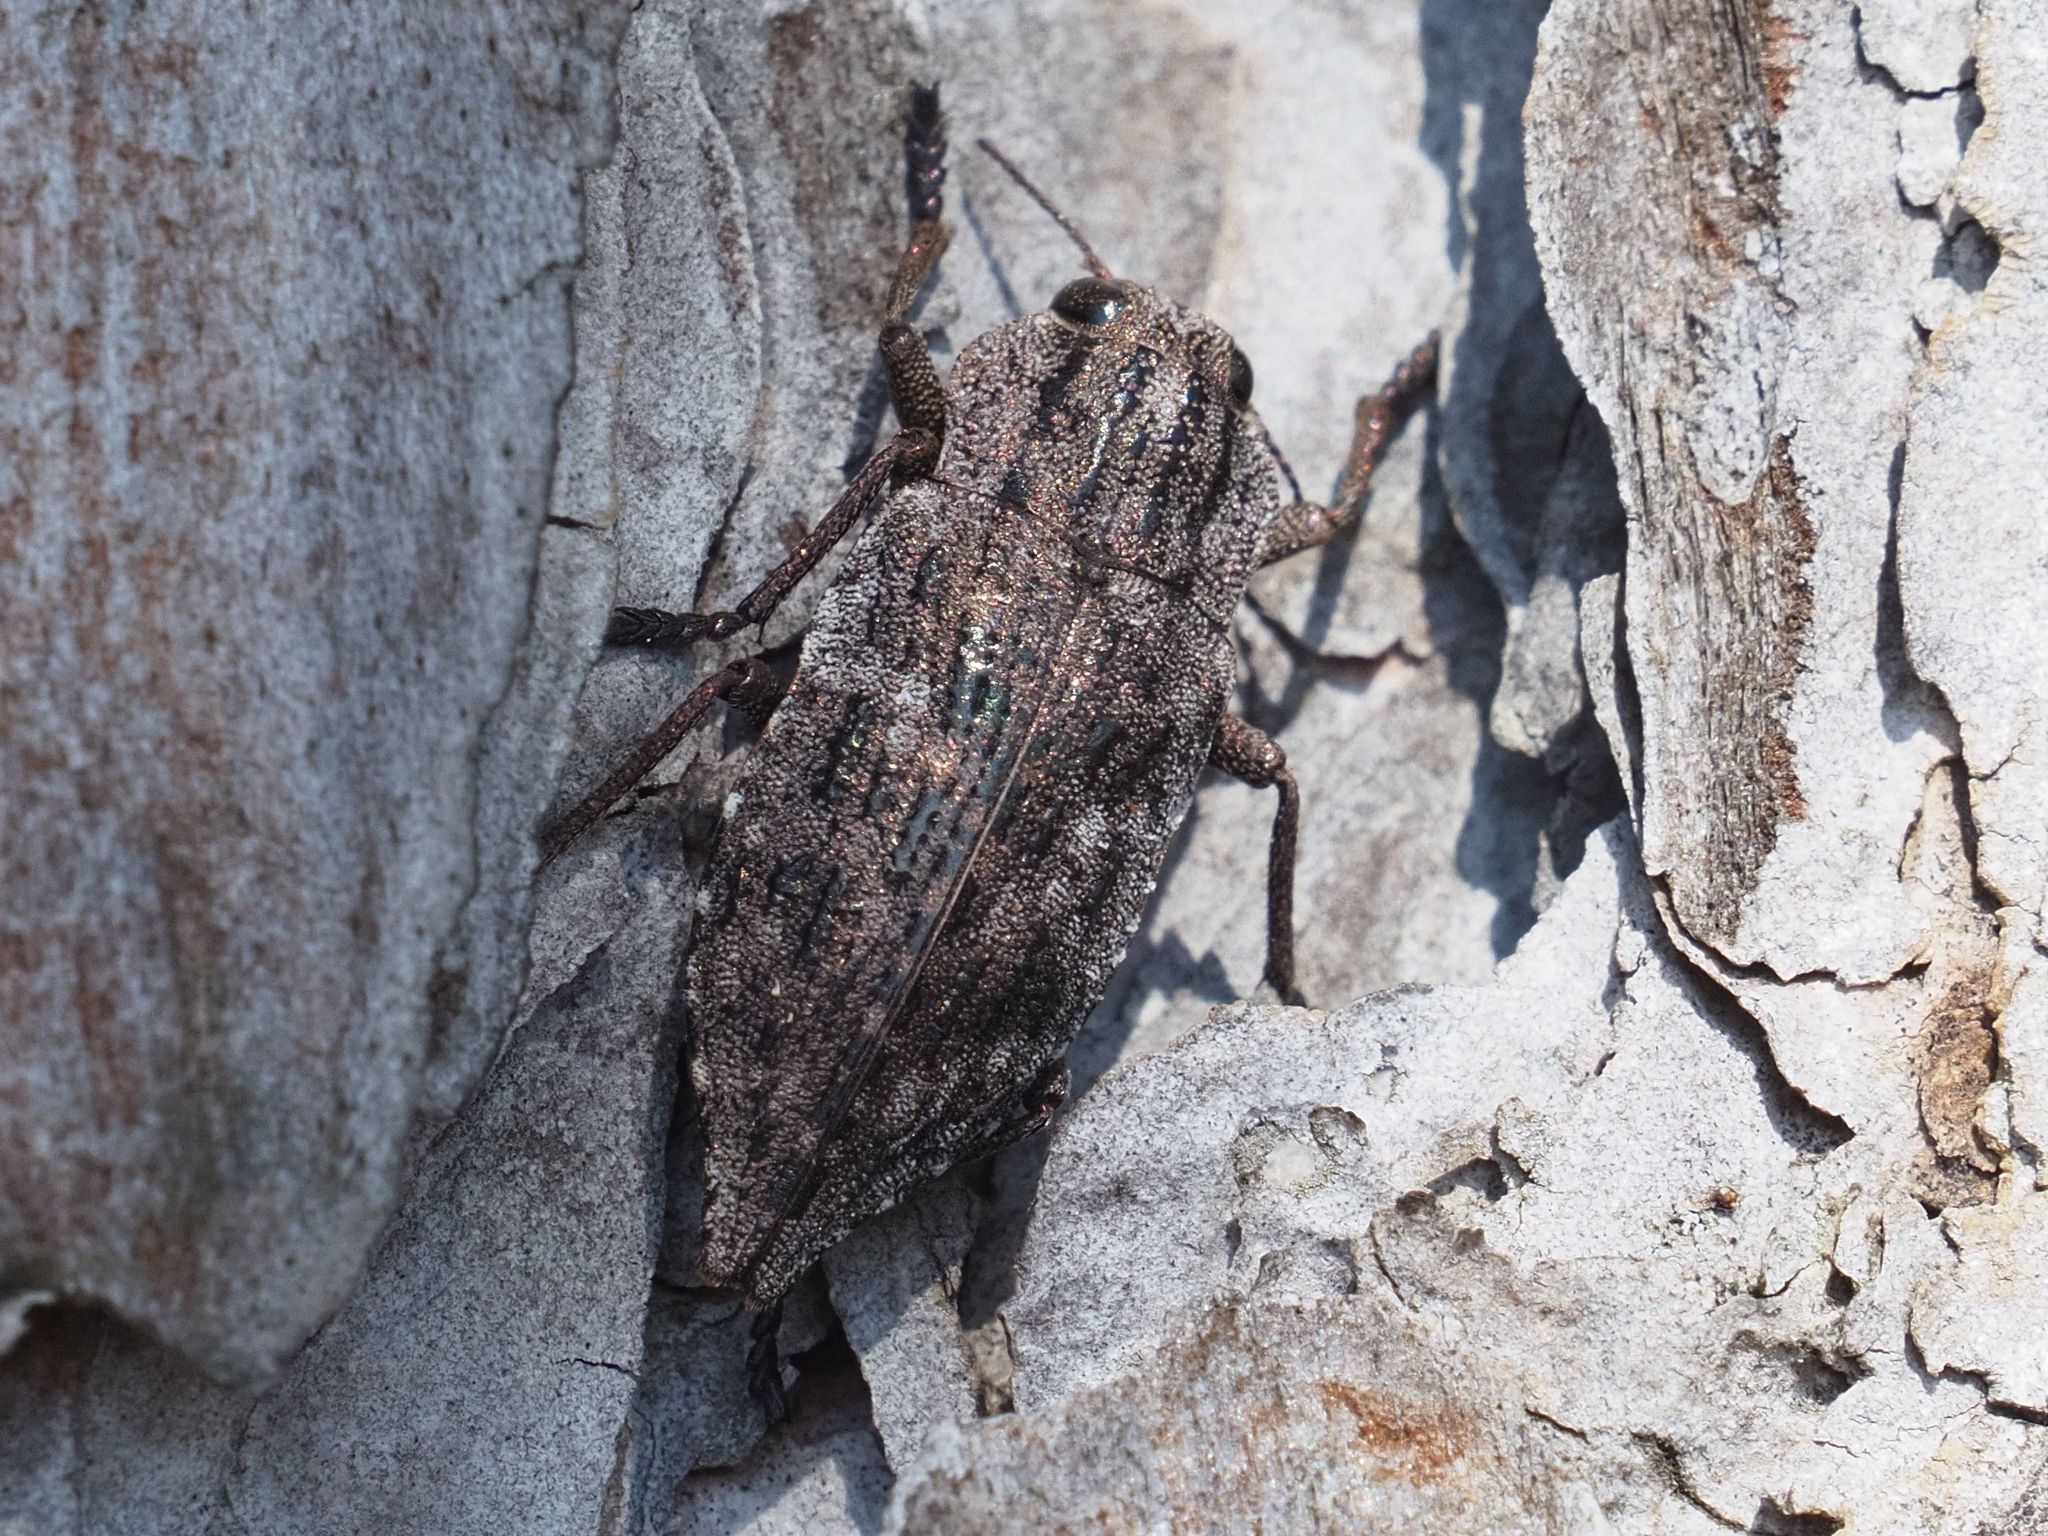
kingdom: Animalia
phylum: Arthropoda
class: Insecta
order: Coleoptera
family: Buprestidae
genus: Dicerca
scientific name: Dicerca moesta
